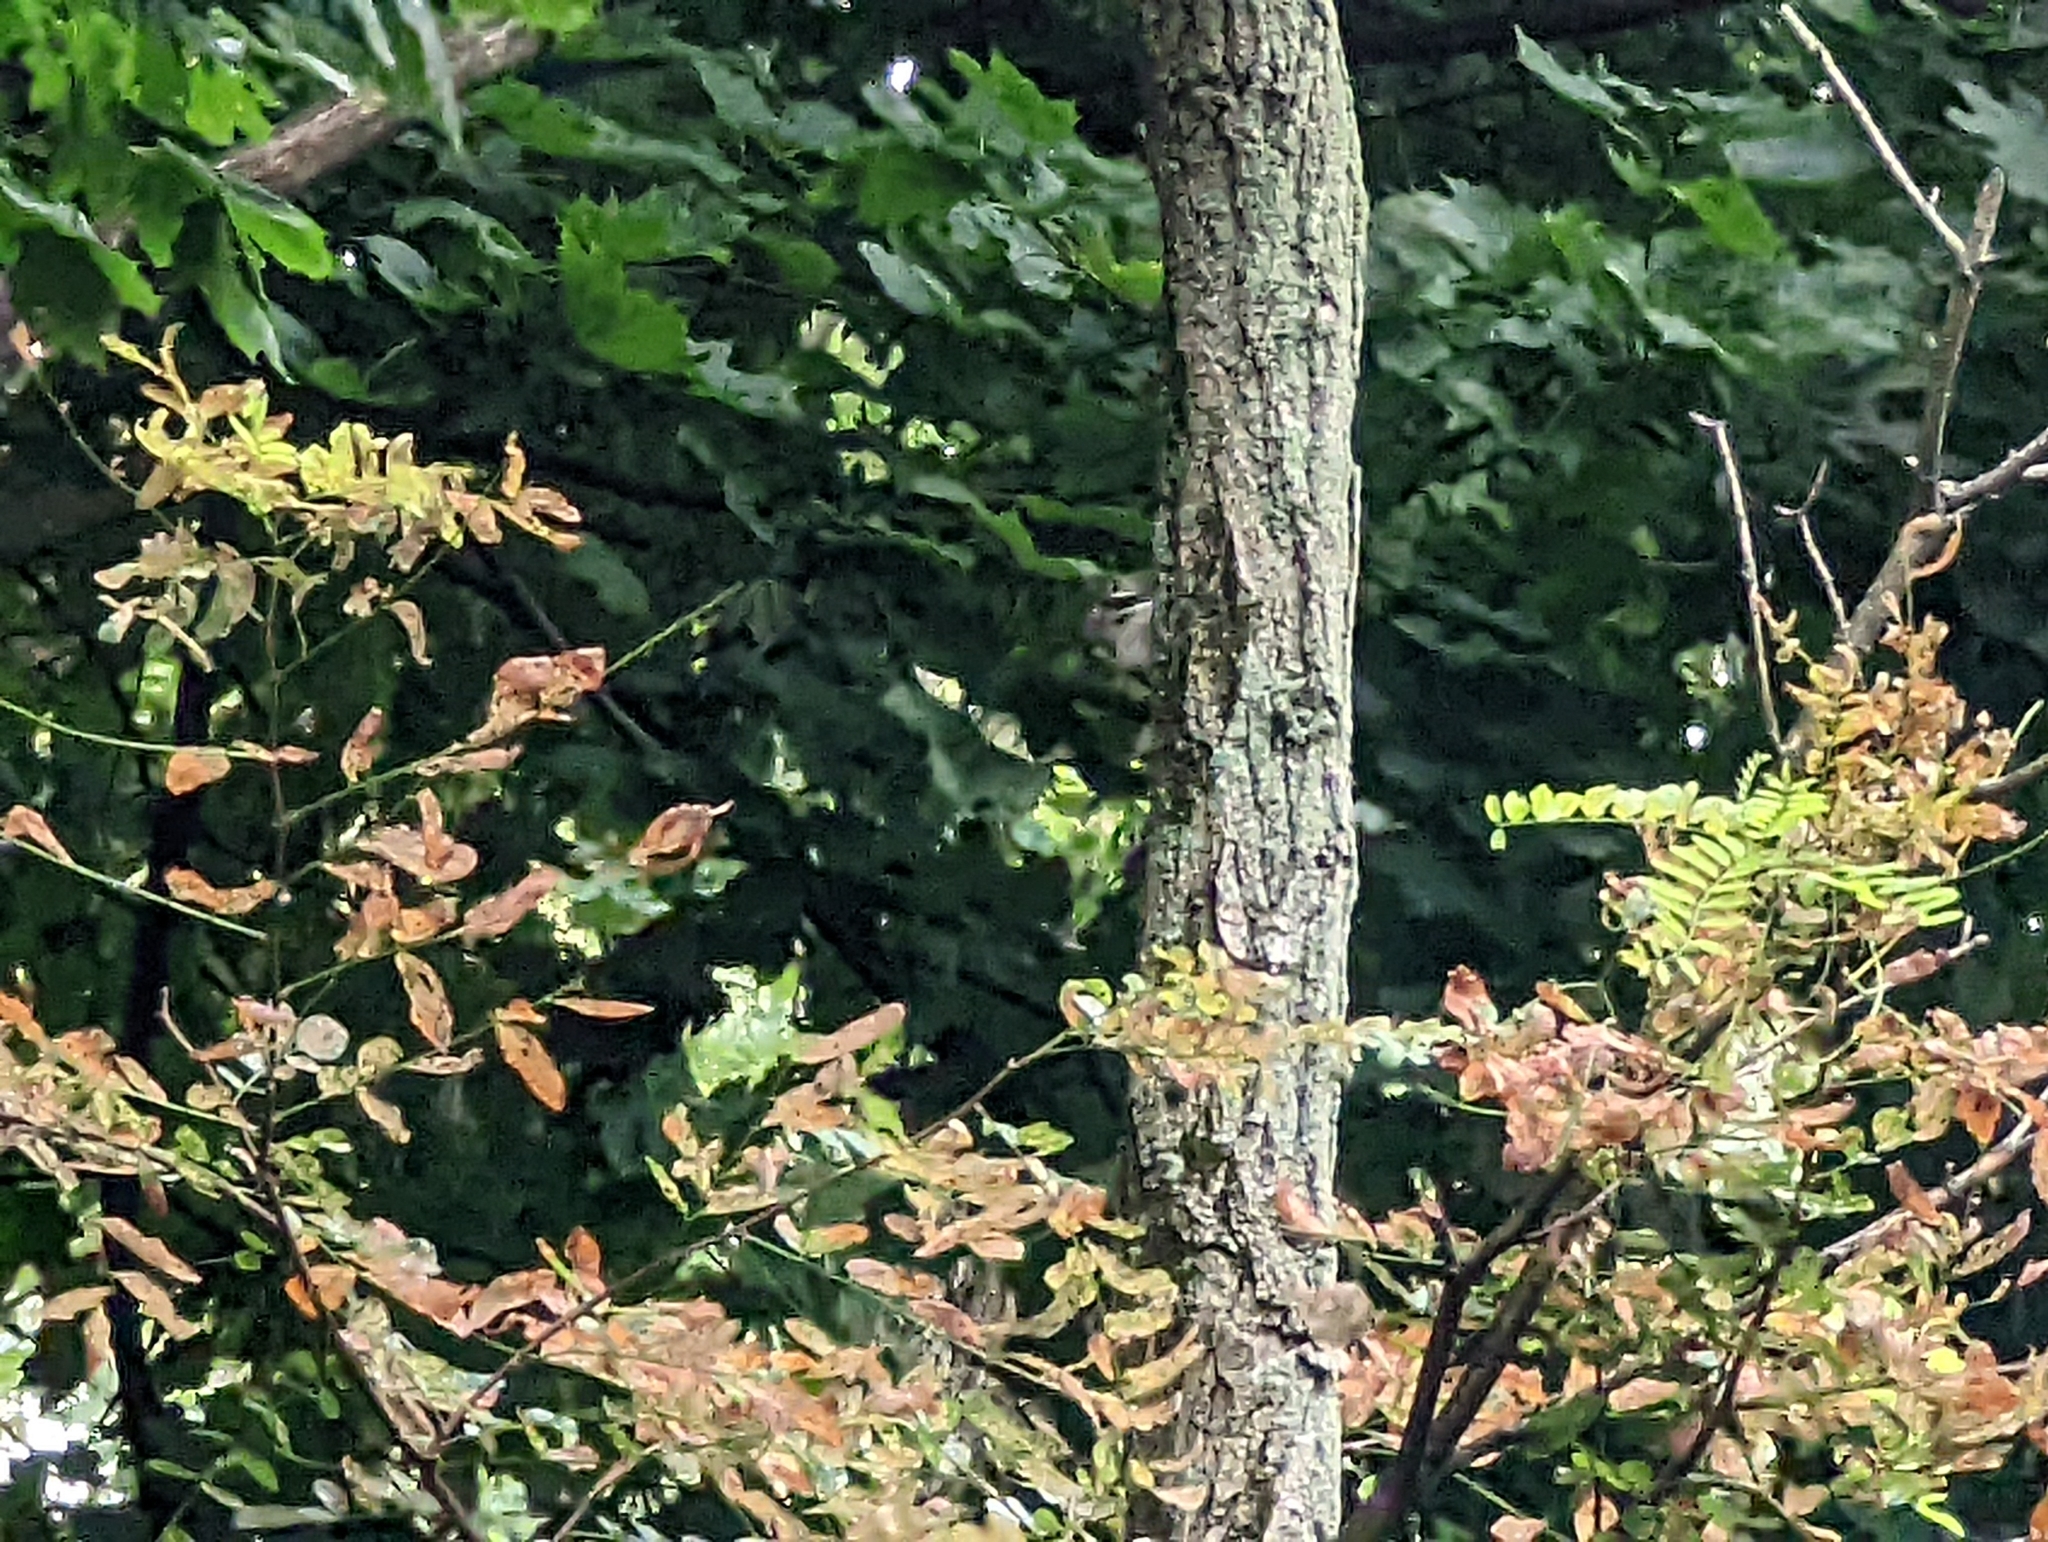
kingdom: Animalia
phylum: Chordata
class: Aves
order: Piciformes
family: Picidae
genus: Dryobates
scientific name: Dryobates pubescens
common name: Downy woodpecker
